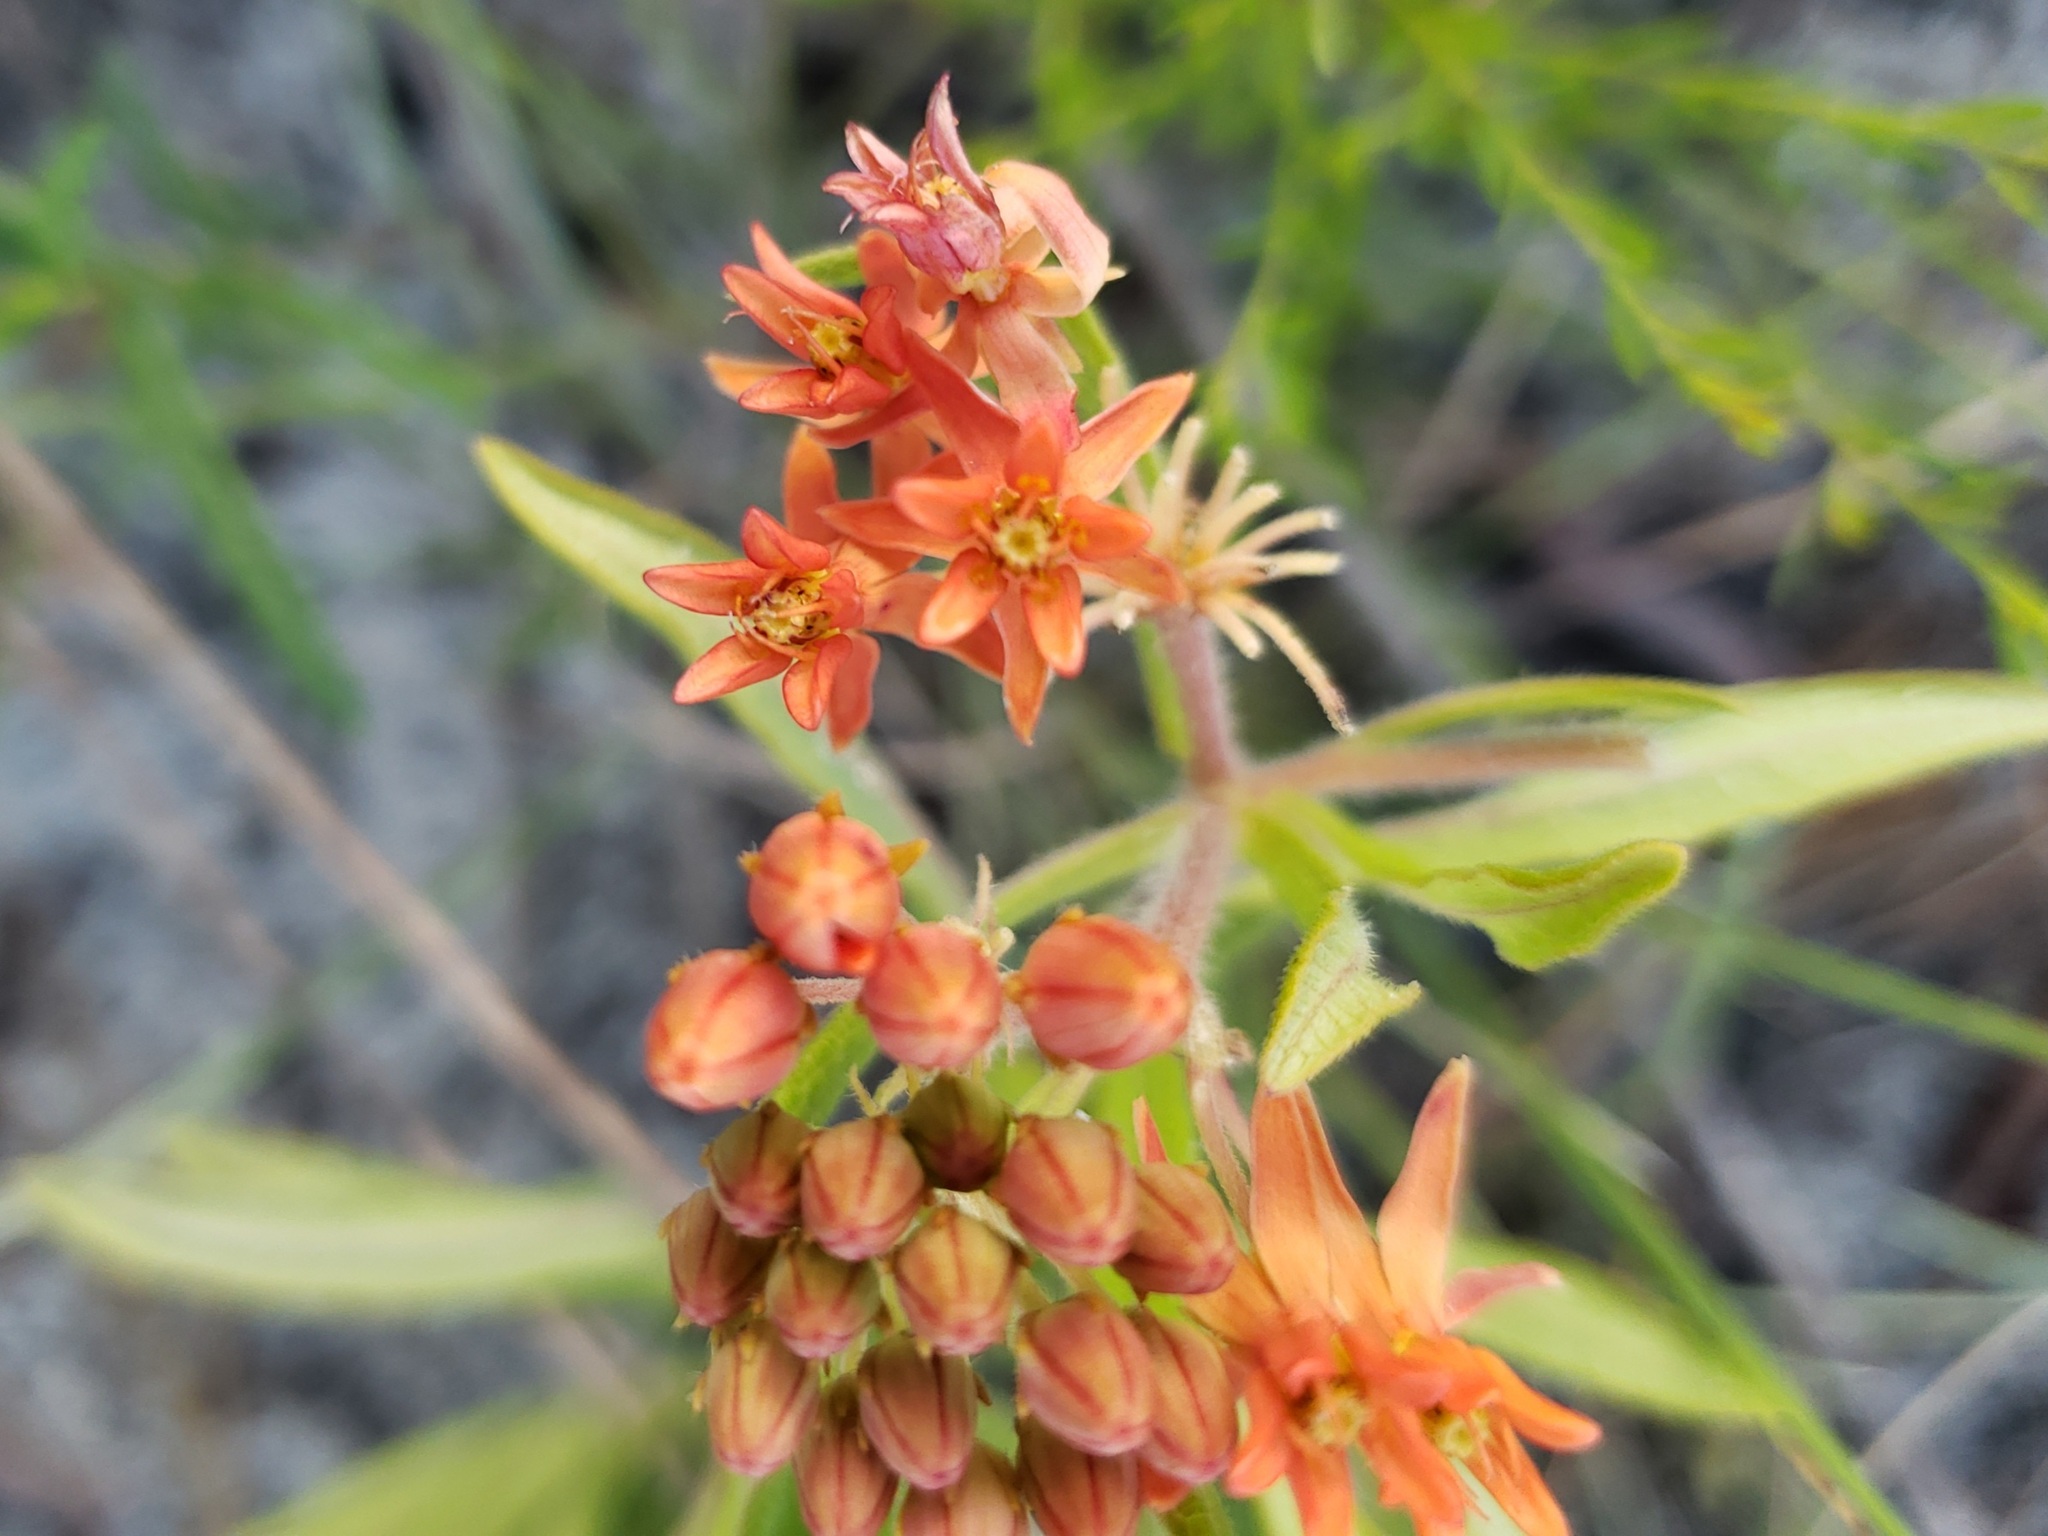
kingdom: Plantae
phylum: Tracheophyta
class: Magnoliopsida
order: Gentianales
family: Apocynaceae
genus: Asclepias
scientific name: Asclepias tuberosa
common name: Butterfly milkweed
